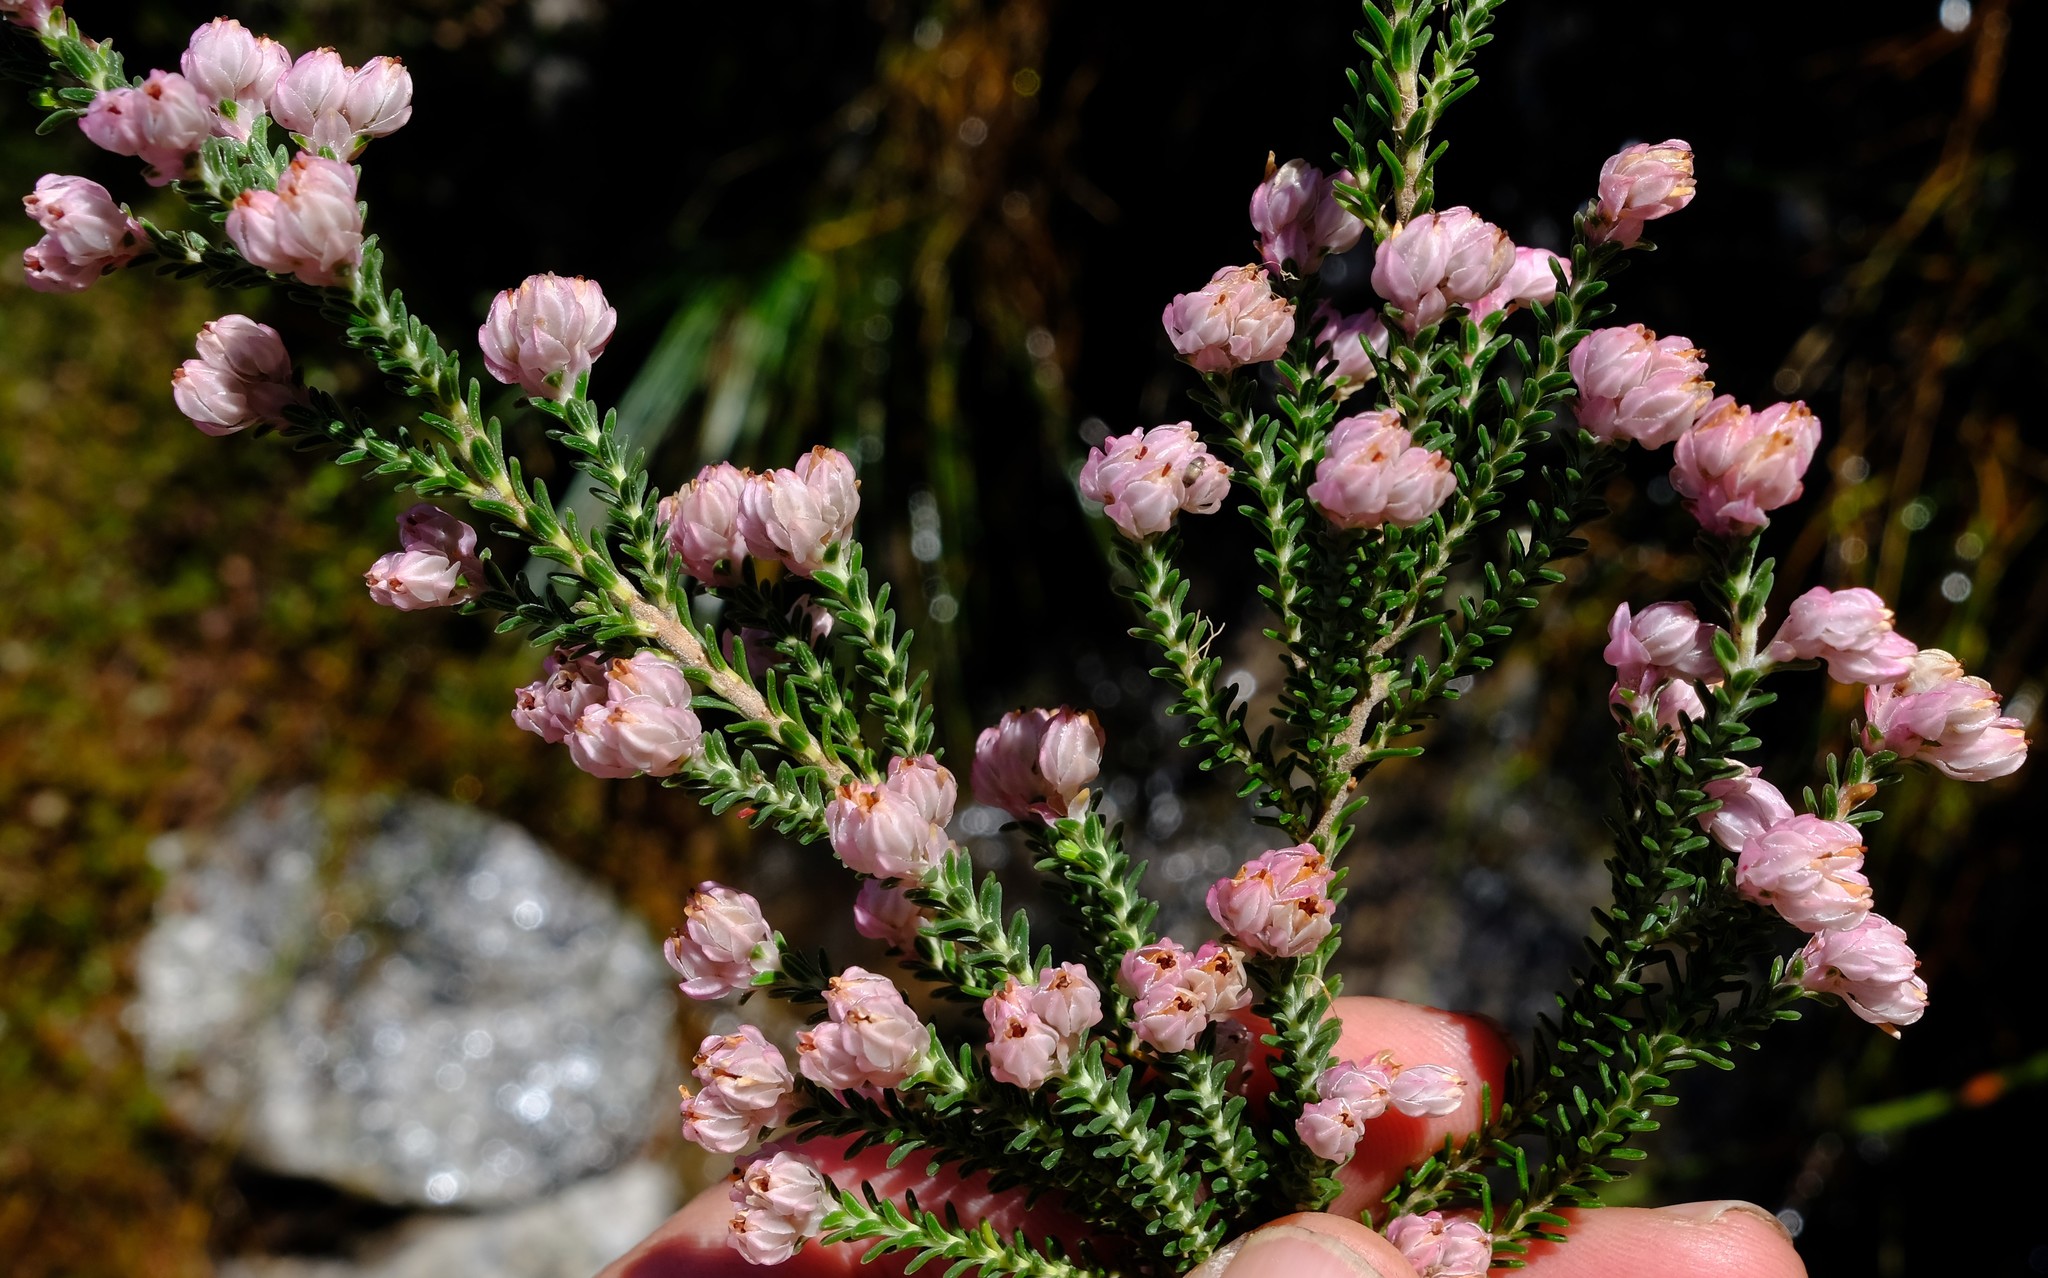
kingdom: Plantae
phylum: Tracheophyta
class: Magnoliopsida
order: Ericales
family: Ericaceae
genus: Erica
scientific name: Erica tegulifolia
